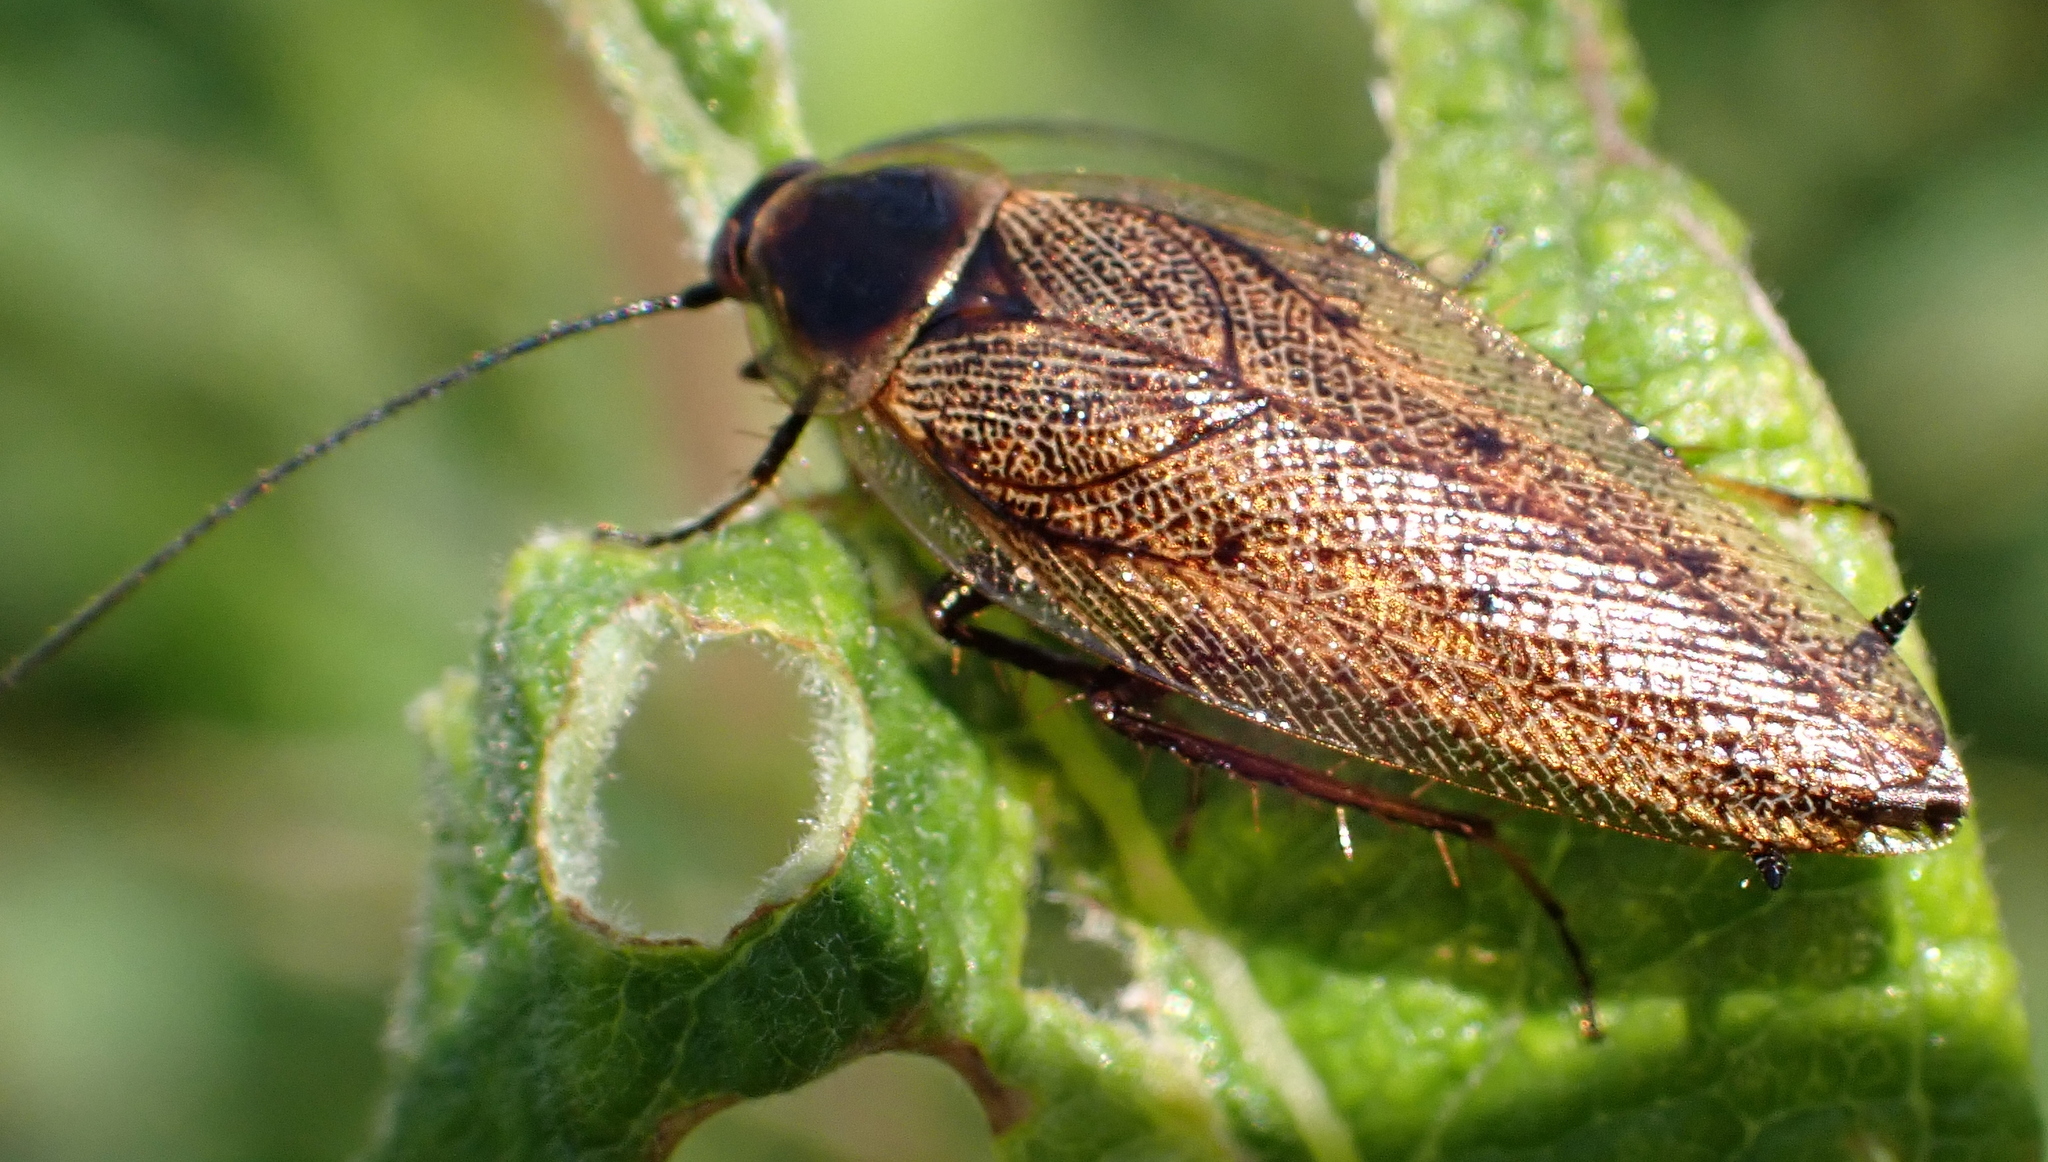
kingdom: Animalia
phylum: Arthropoda
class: Insecta
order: Blattodea
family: Ectobiidae
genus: Ectobius
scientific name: Ectobius lapponicus
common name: Dusky cockroach
